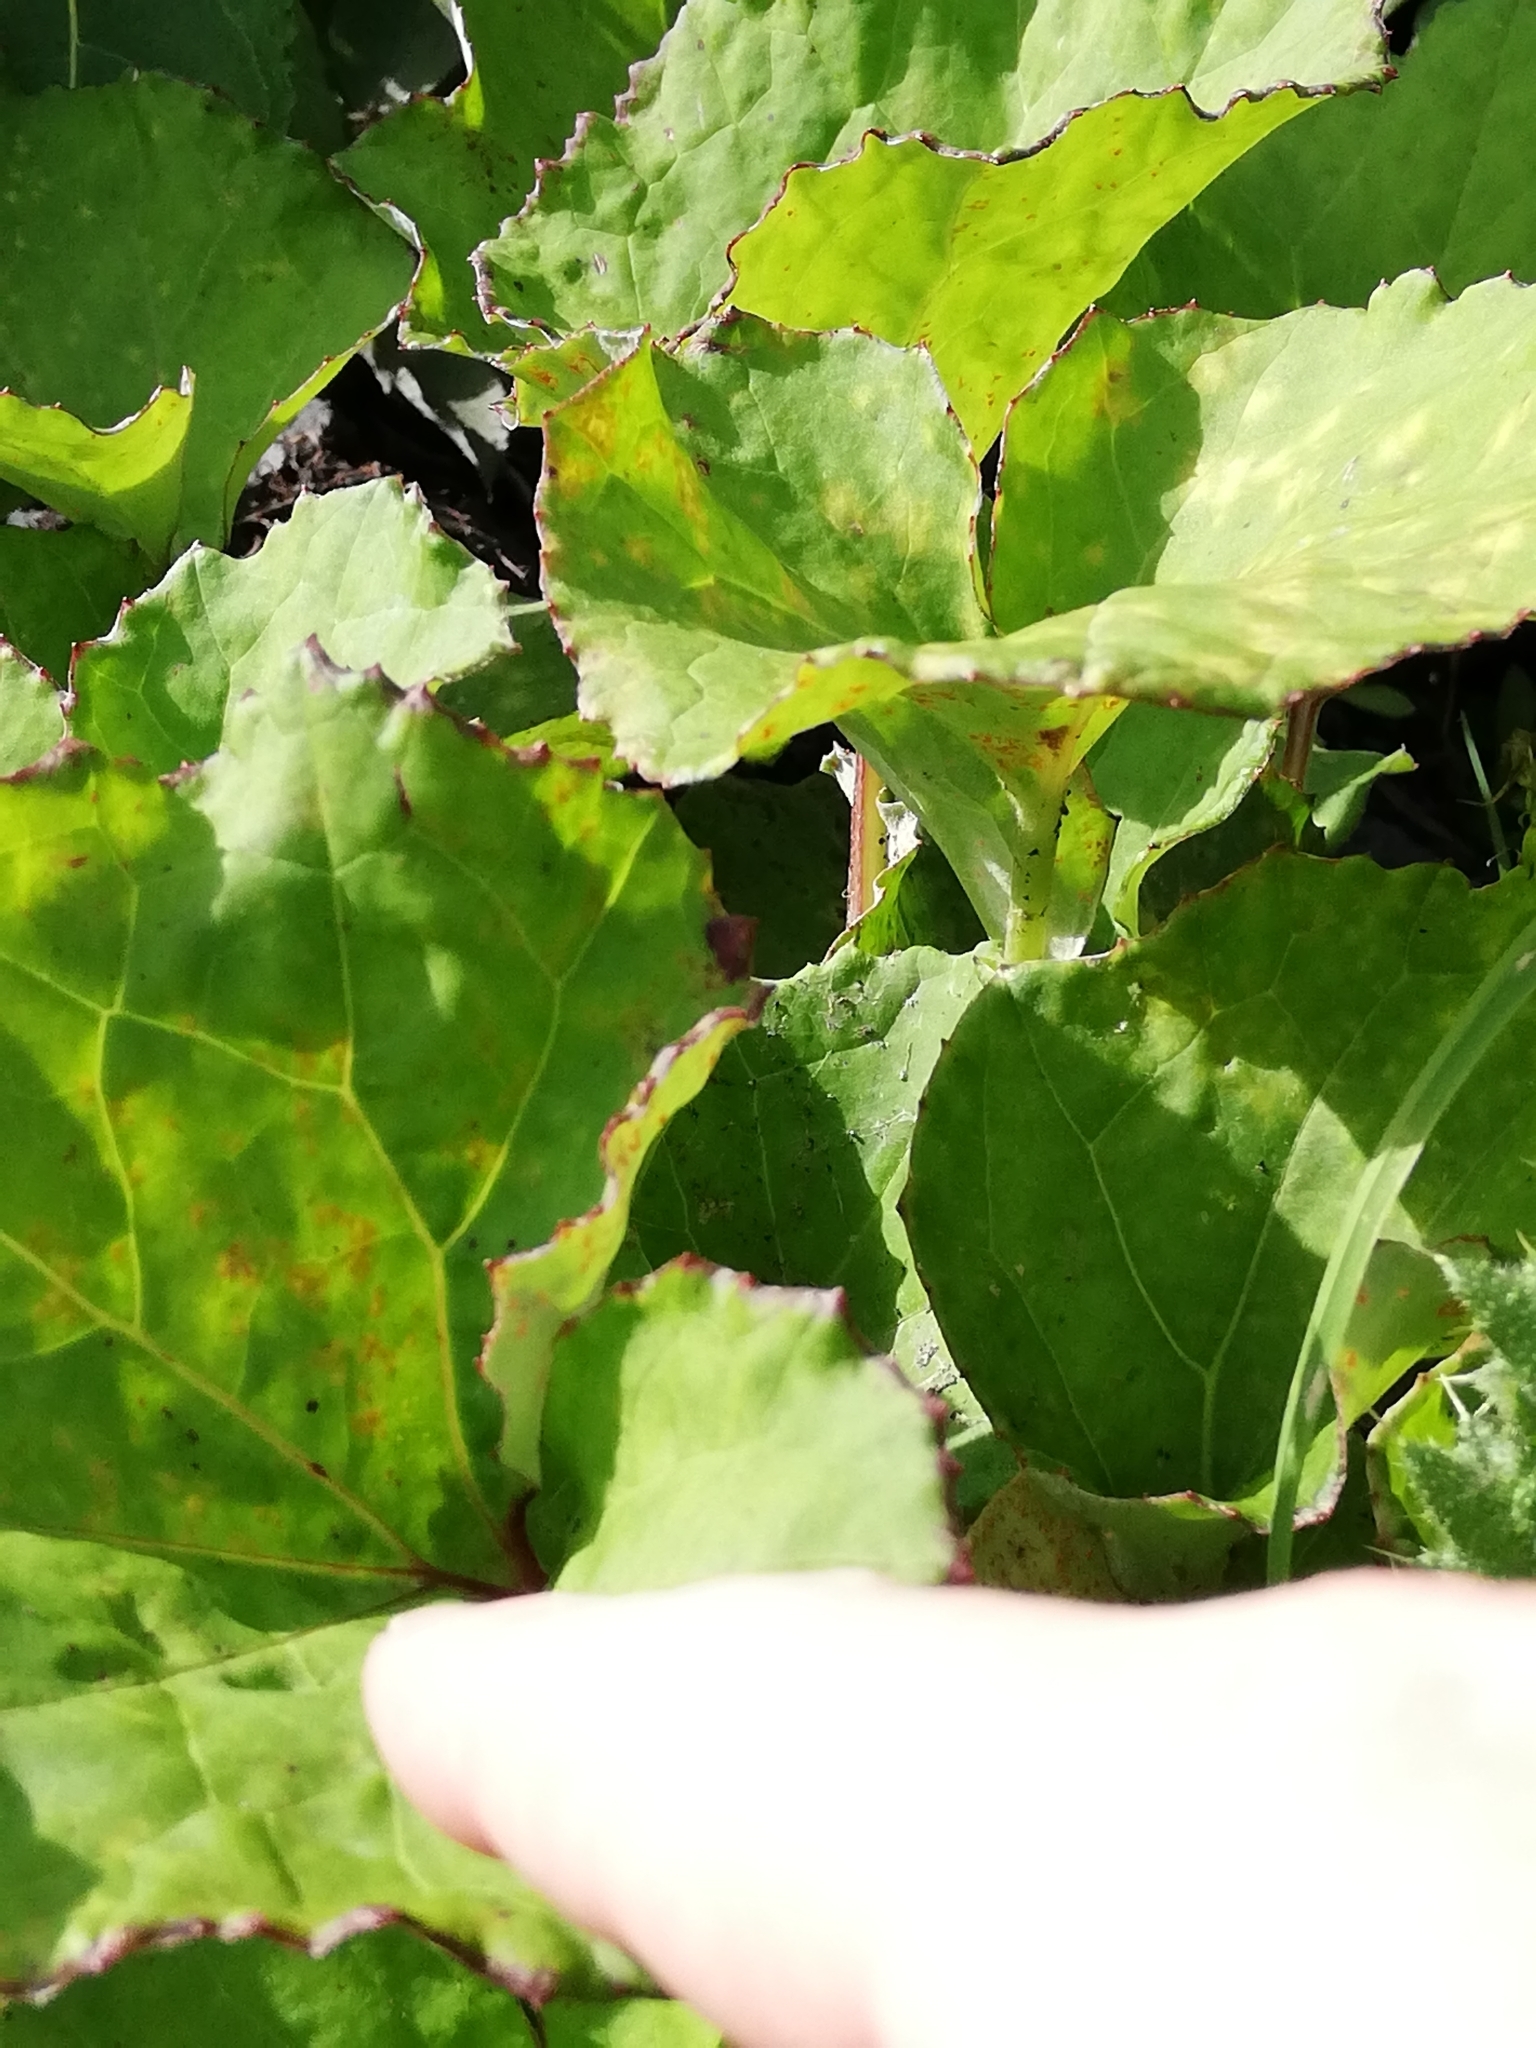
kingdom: Plantae
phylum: Tracheophyta
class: Magnoliopsida
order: Asterales
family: Asteraceae
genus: Tussilago
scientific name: Tussilago farfara
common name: Coltsfoot
